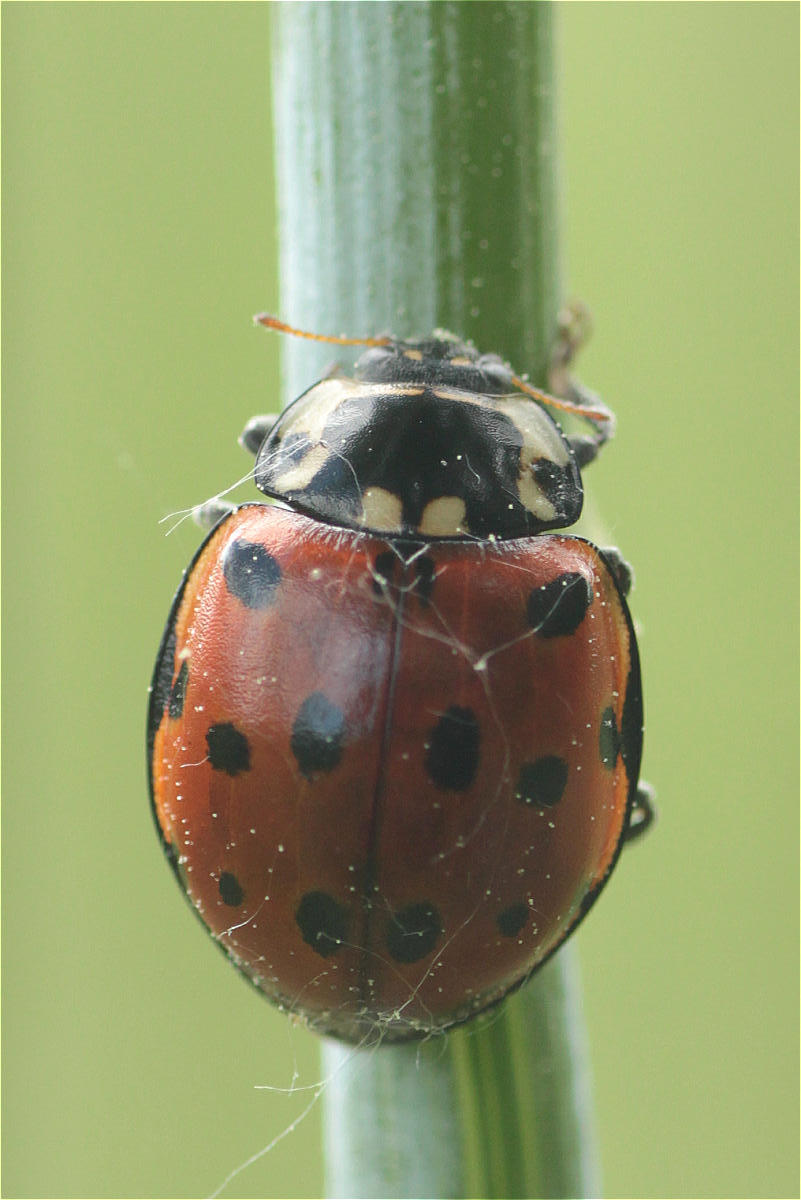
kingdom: Animalia
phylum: Arthropoda
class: Insecta
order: Coleoptera
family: Coccinellidae
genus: Anatis
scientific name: Anatis ocellata
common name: Eyed ladybird
